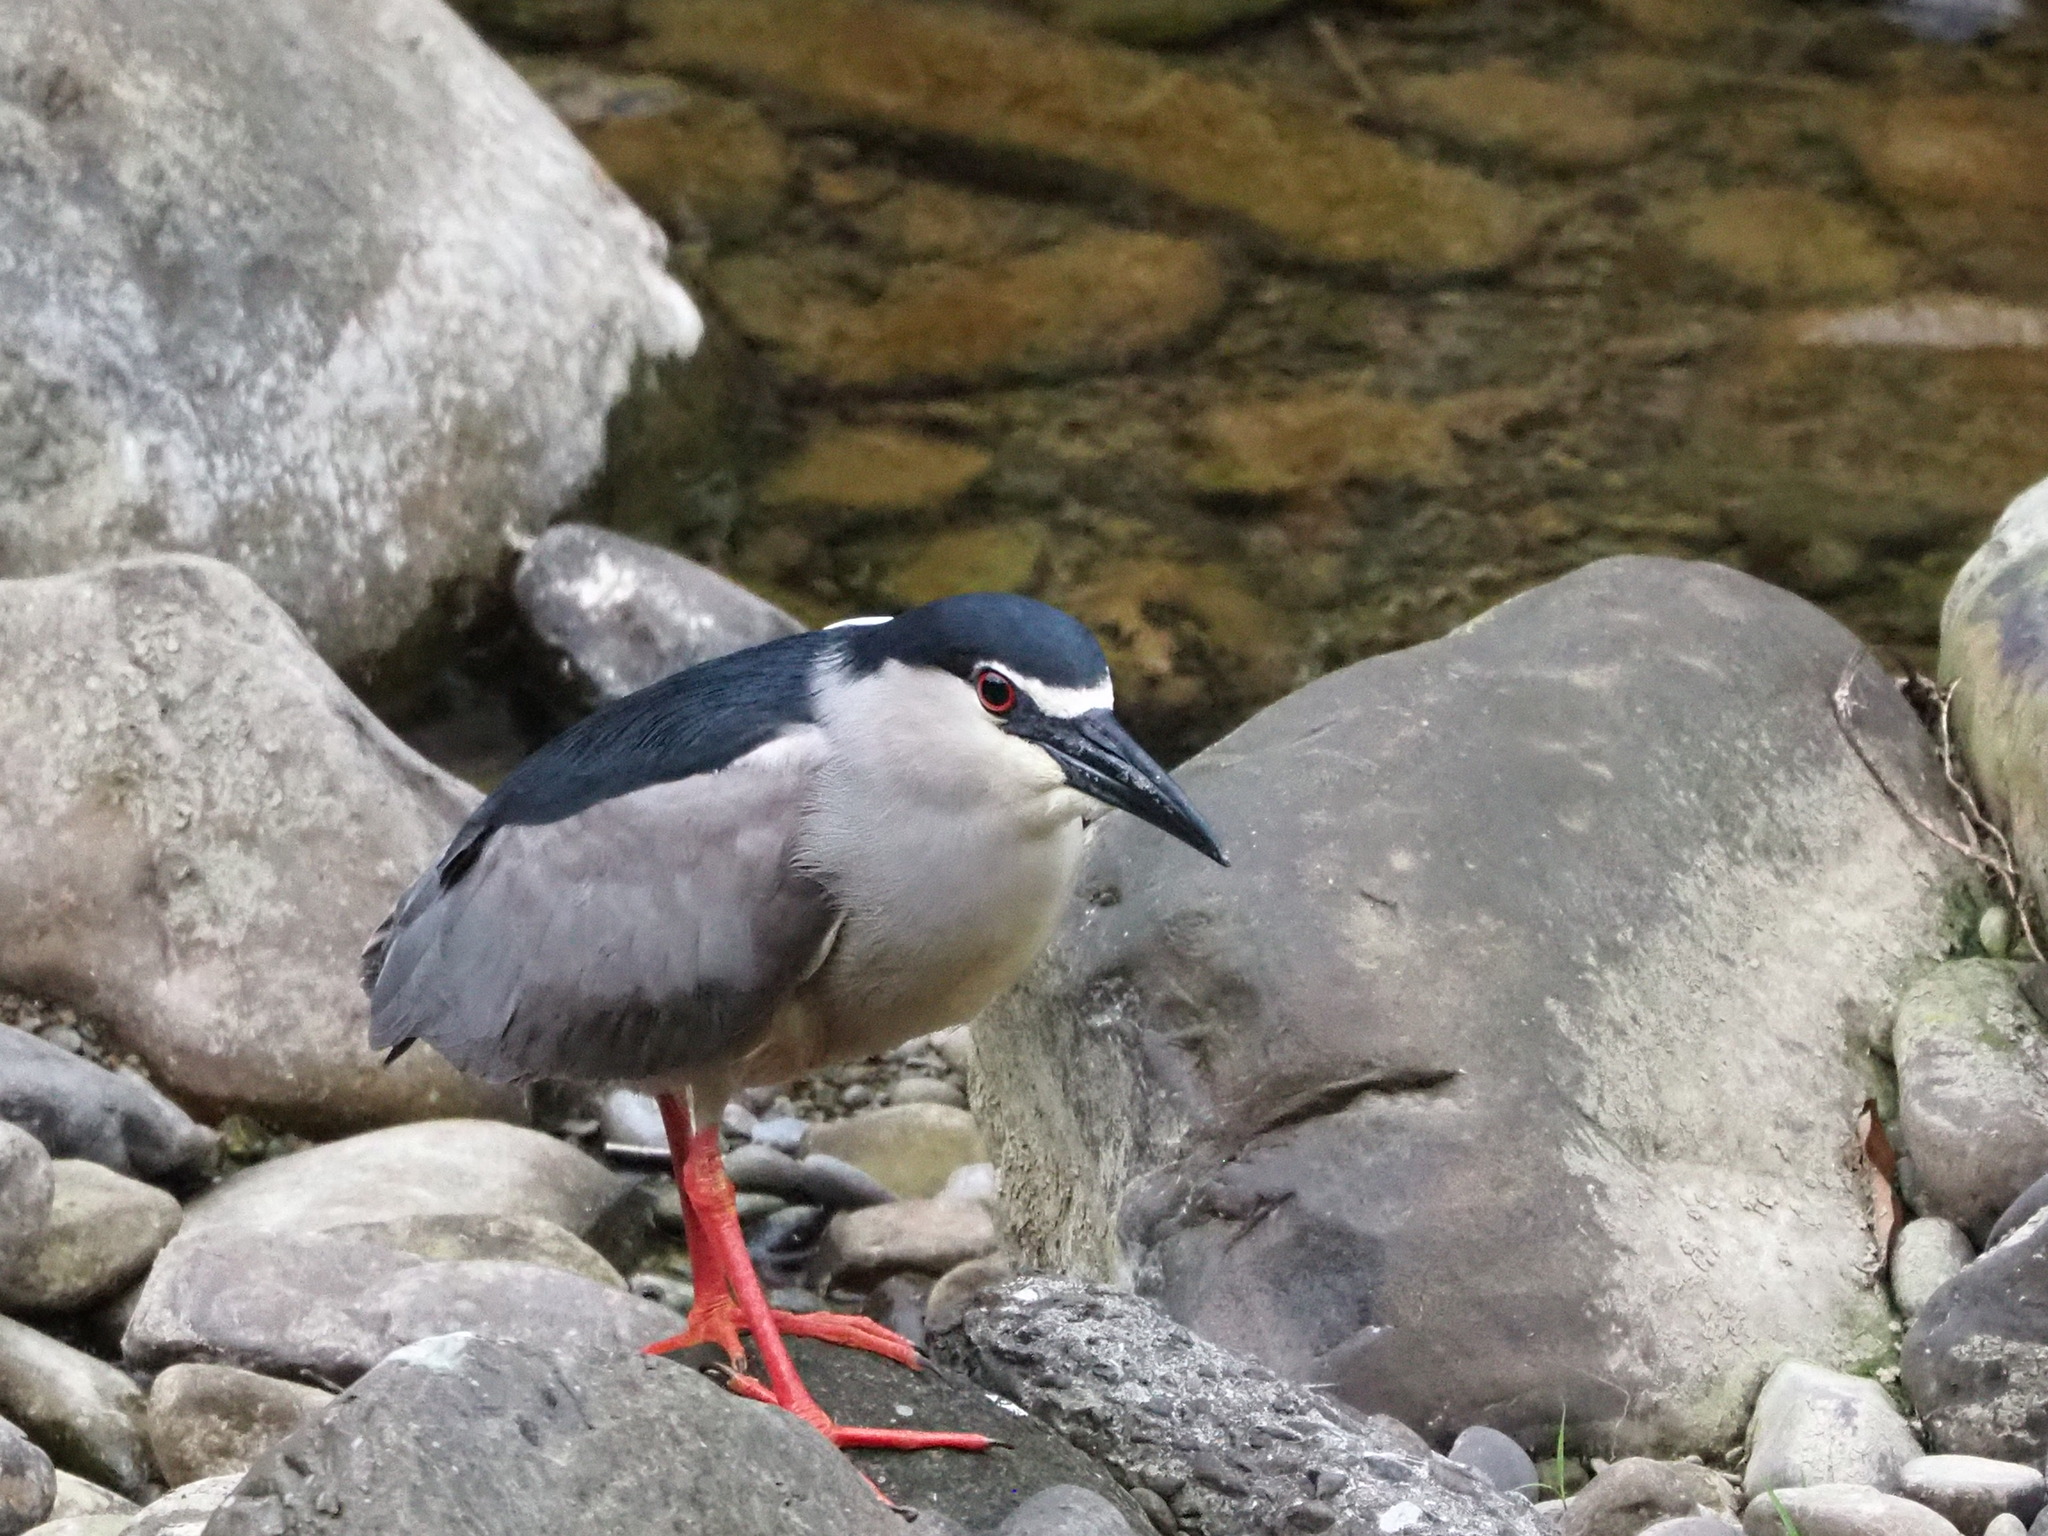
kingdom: Animalia
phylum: Chordata
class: Aves
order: Pelecaniformes
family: Ardeidae
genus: Nycticorax
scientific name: Nycticorax nycticorax
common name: Black-crowned night heron
